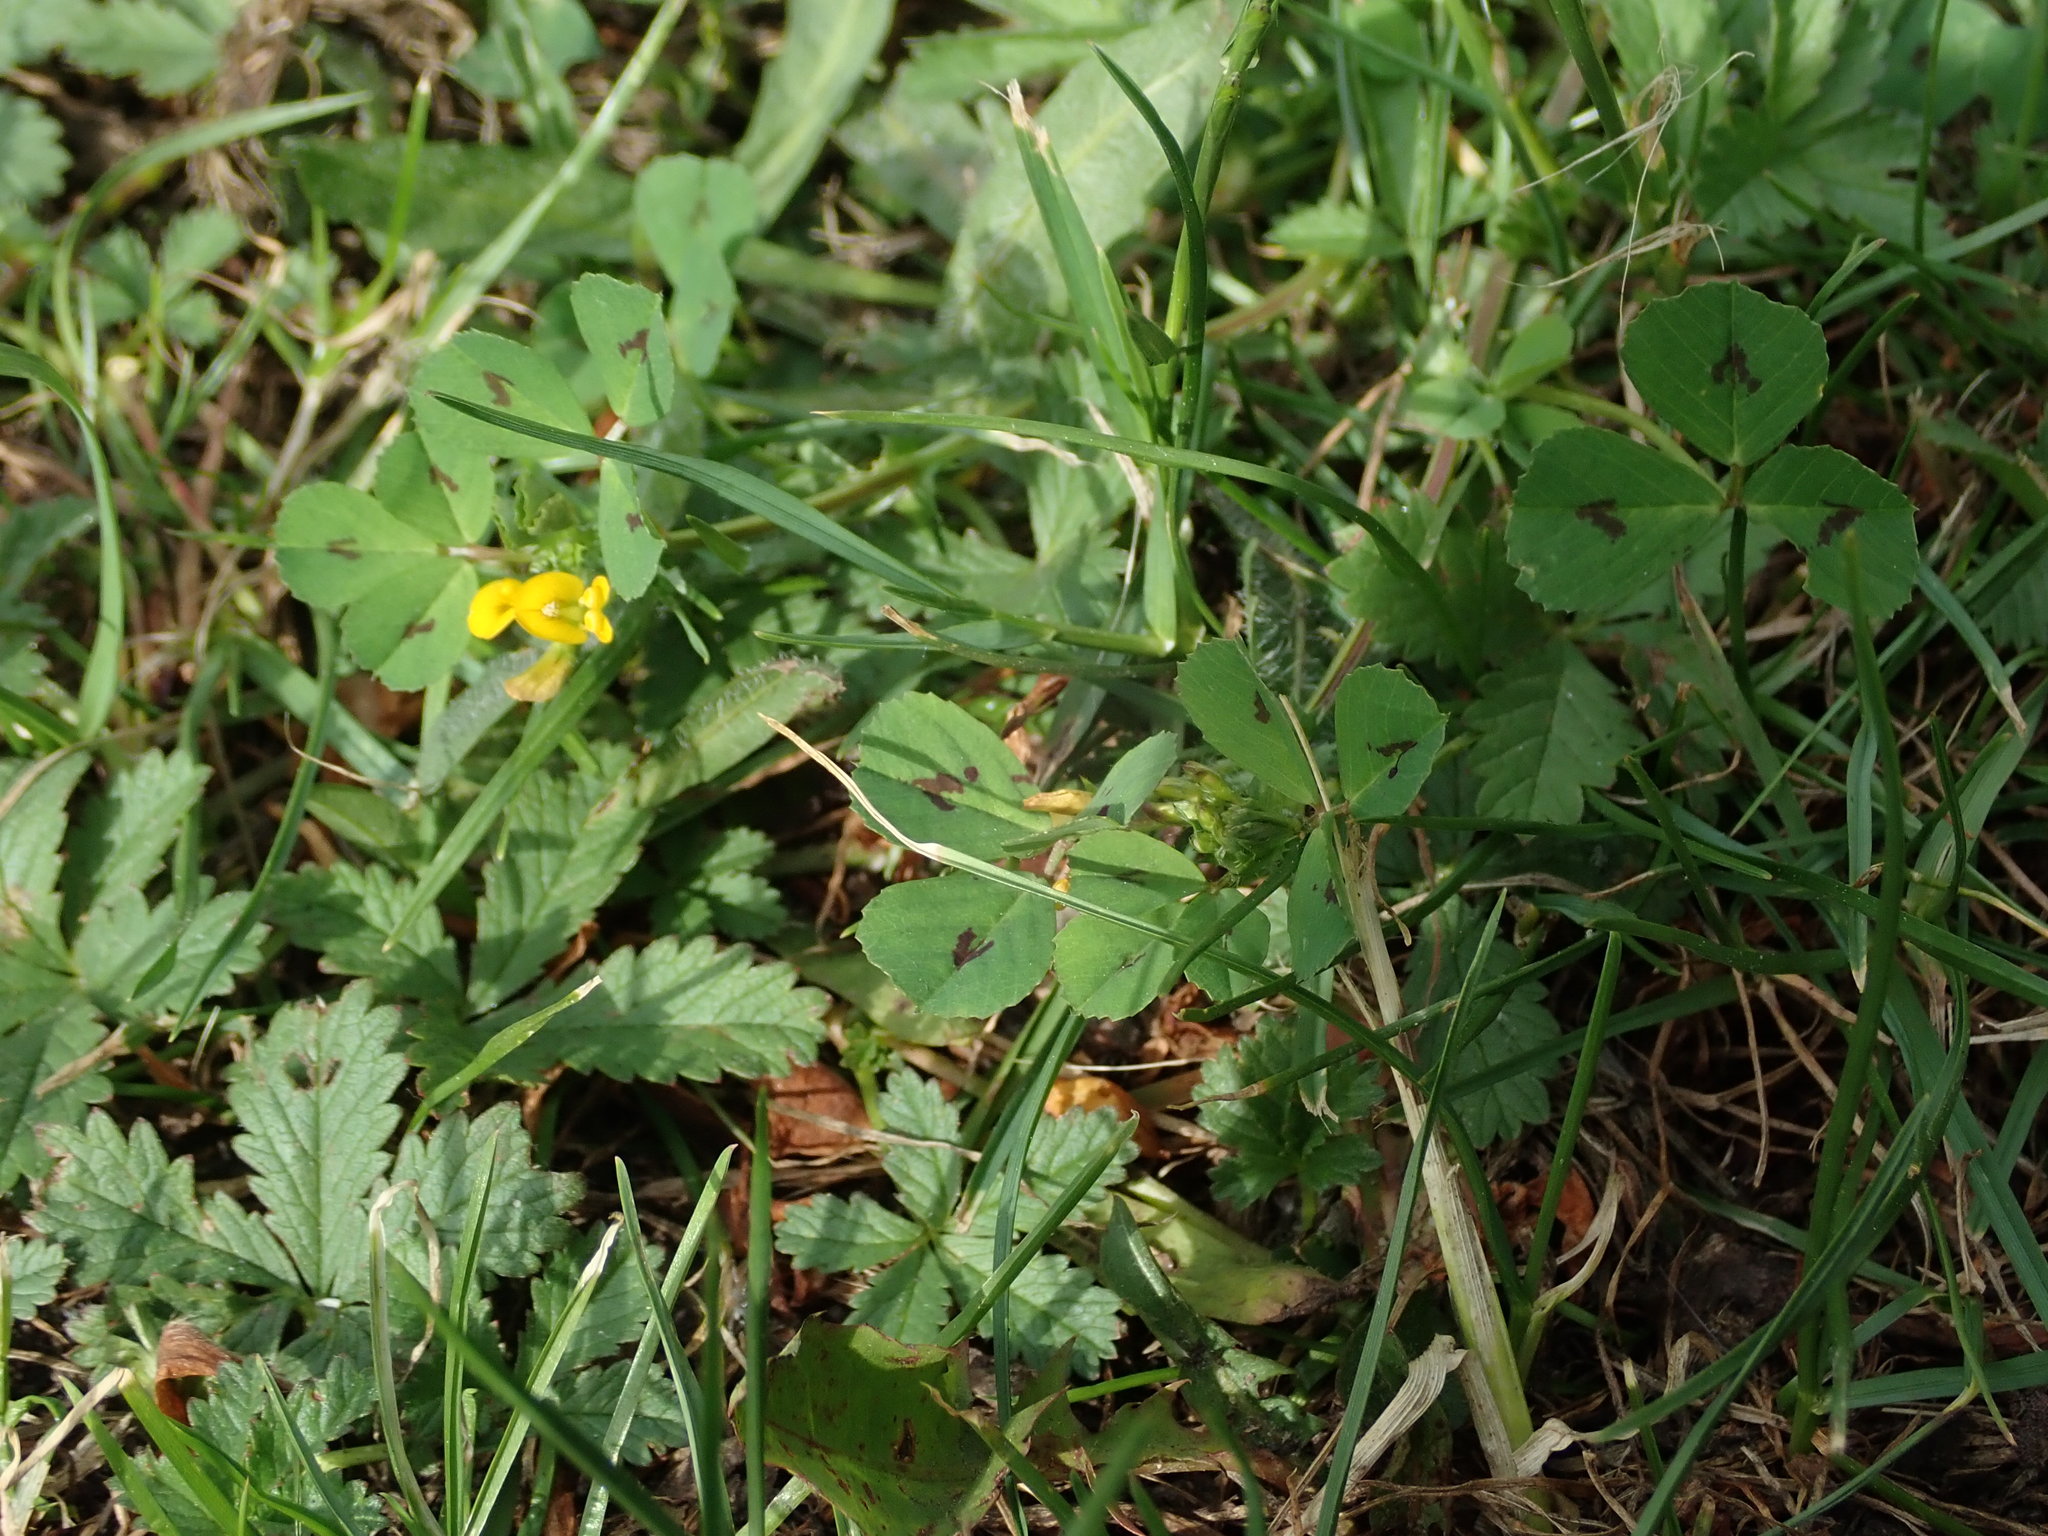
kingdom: Plantae
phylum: Tracheophyta
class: Magnoliopsida
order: Fabales
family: Fabaceae
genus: Medicago
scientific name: Medicago arabica
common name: Spotted medick
